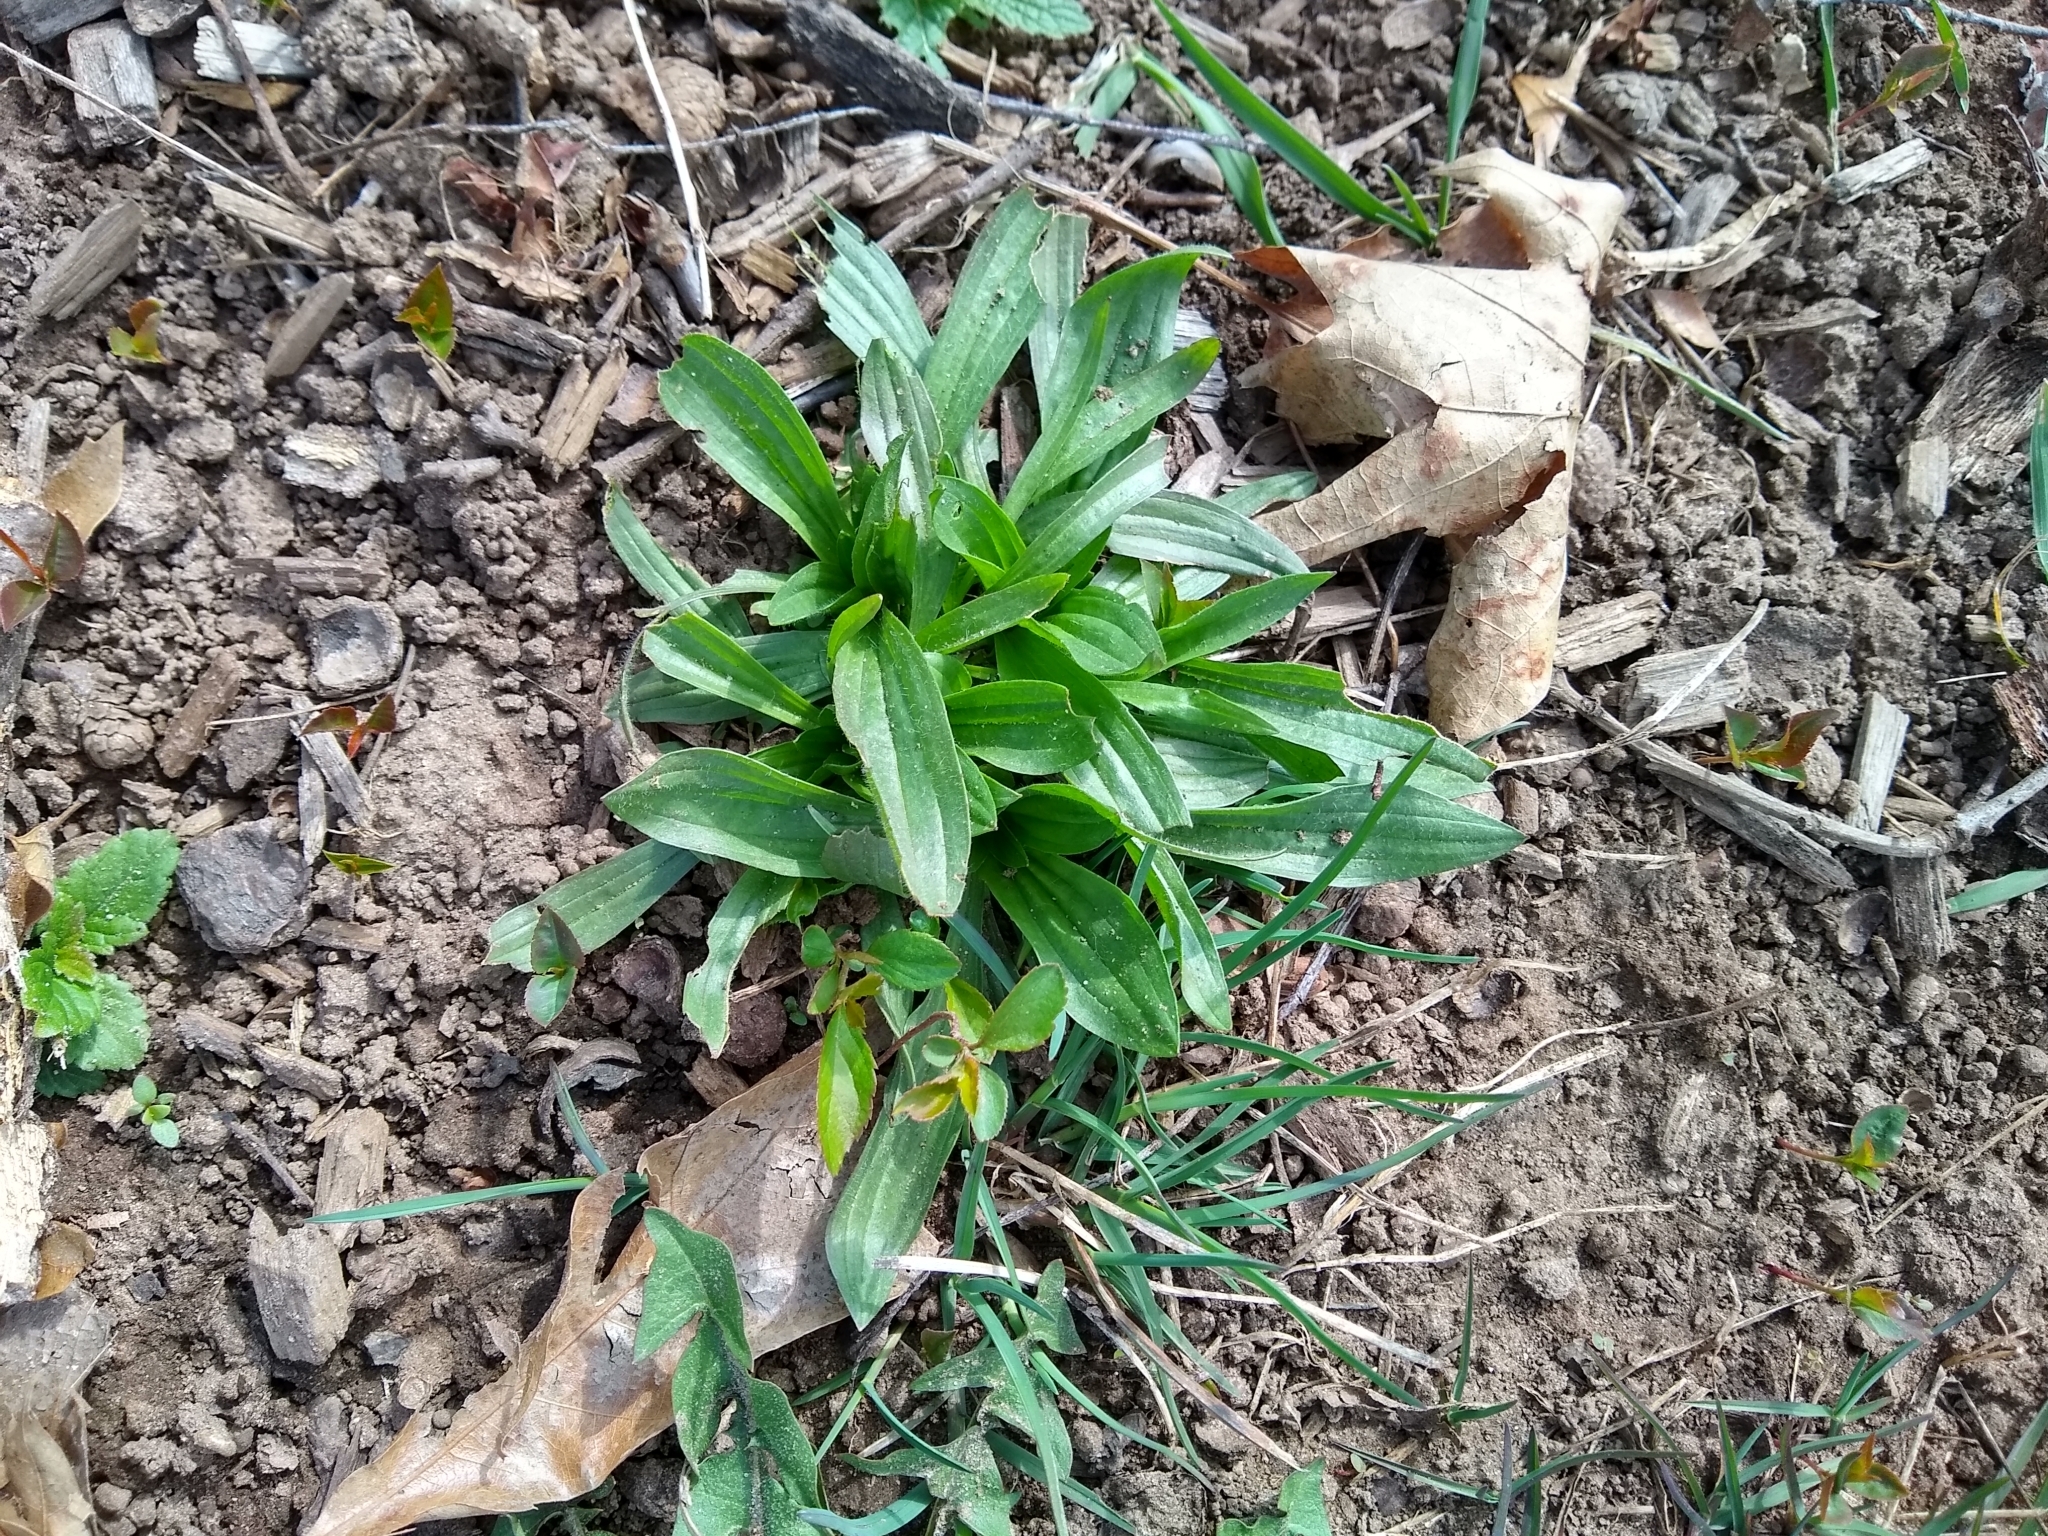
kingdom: Plantae
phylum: Tracheophyta
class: Magnoliopsida
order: Lamiales
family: Plantaginaceae
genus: Plantago
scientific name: Plantago lanceolata
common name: Ribwort plantain
